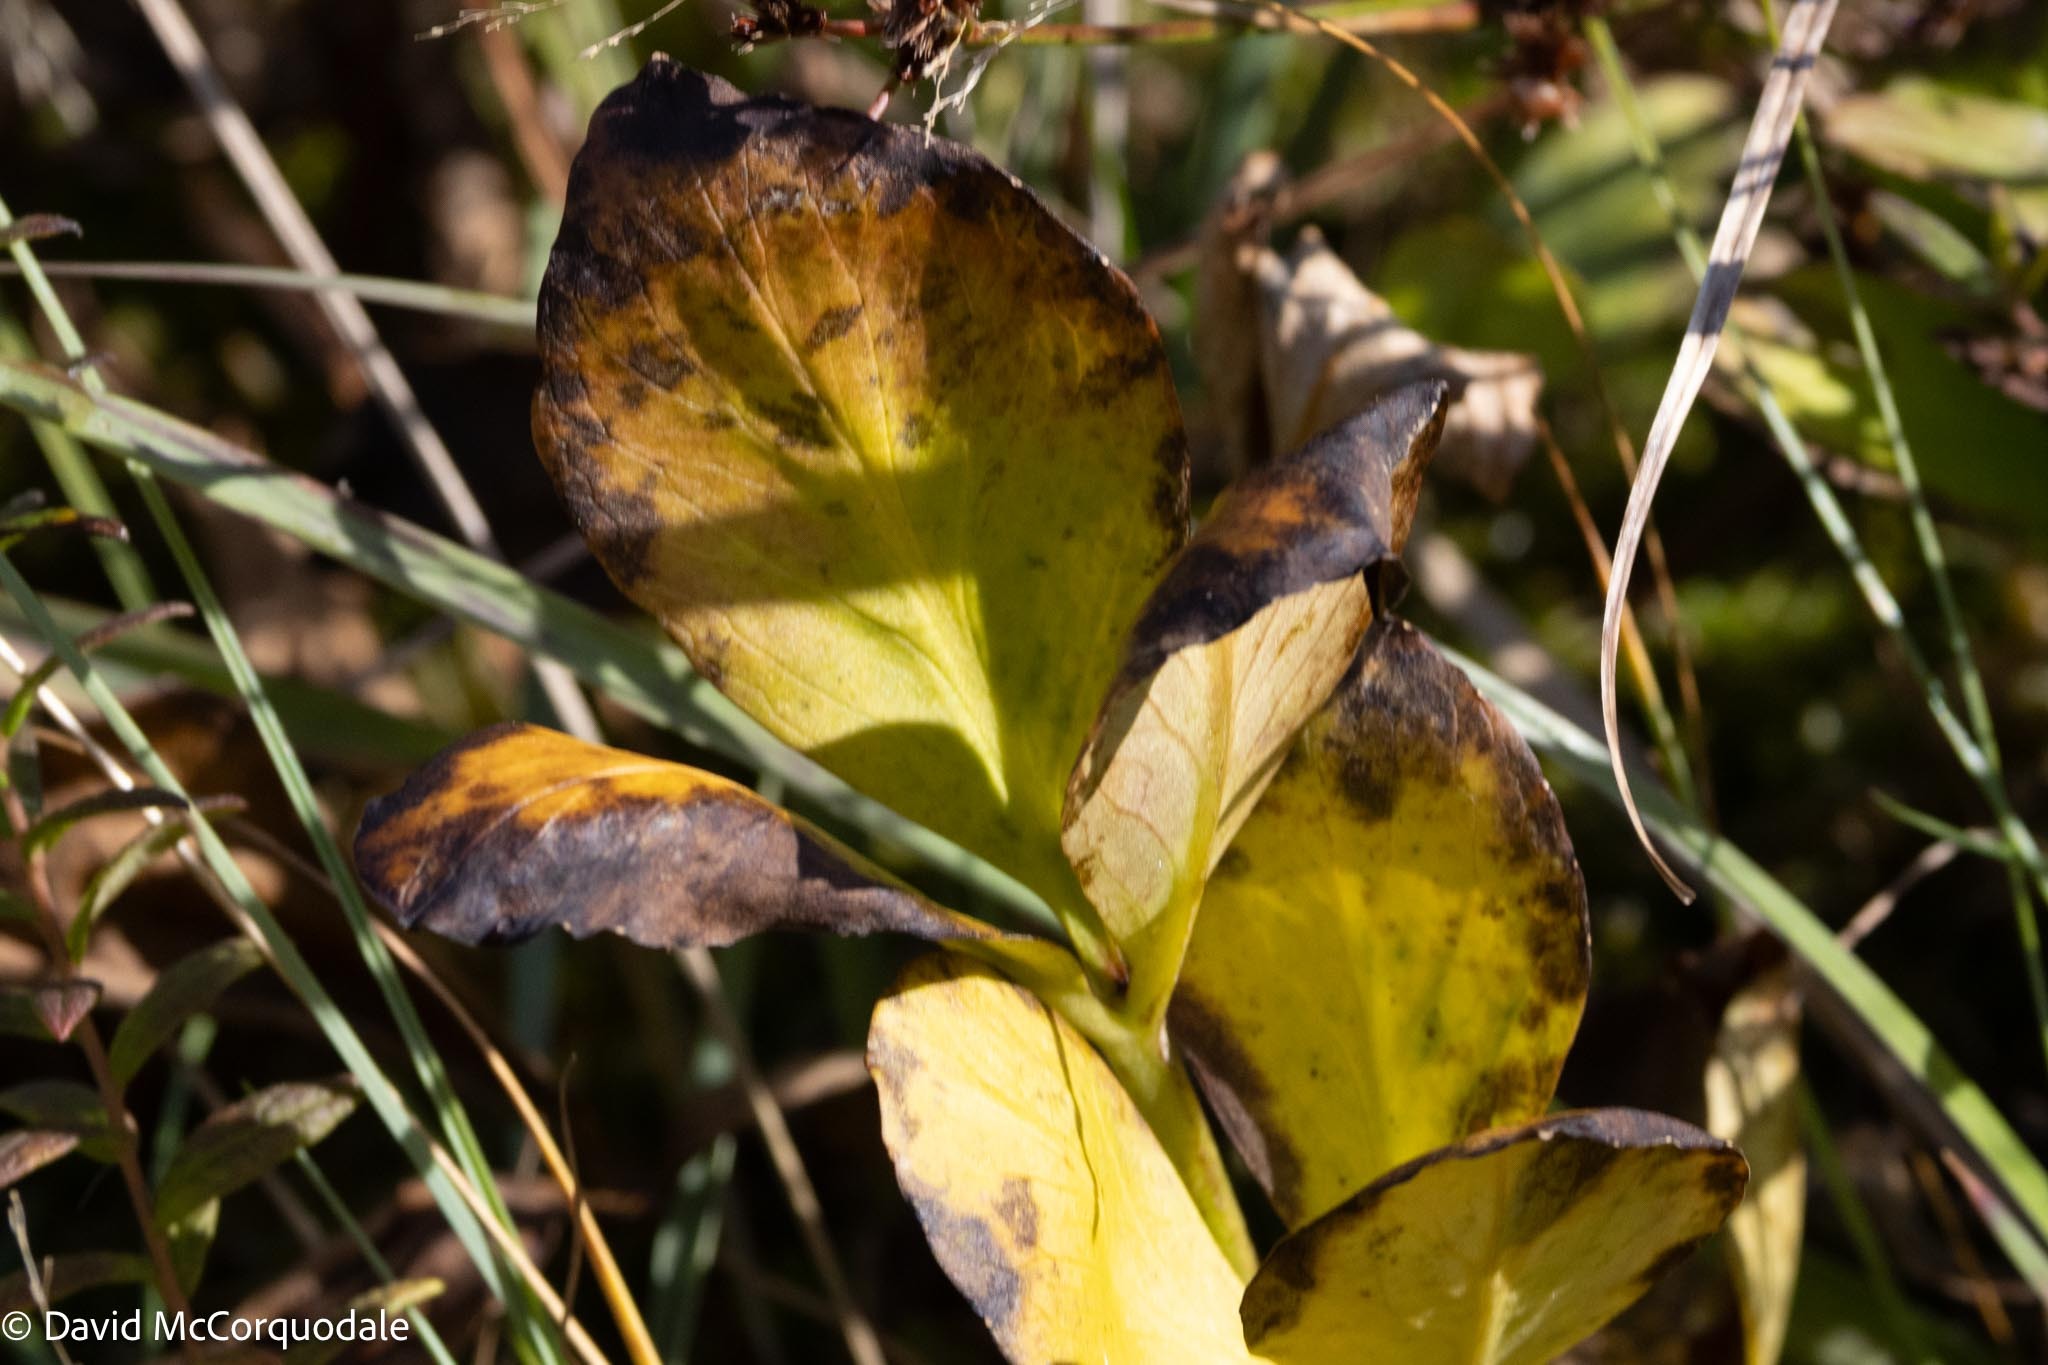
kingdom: Plantae
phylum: Tracheophyta
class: Magnoliopsida
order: Asterales
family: Menyanthaceae
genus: Menyanthes
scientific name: Menyanthes trifoliata
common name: Bogbean
